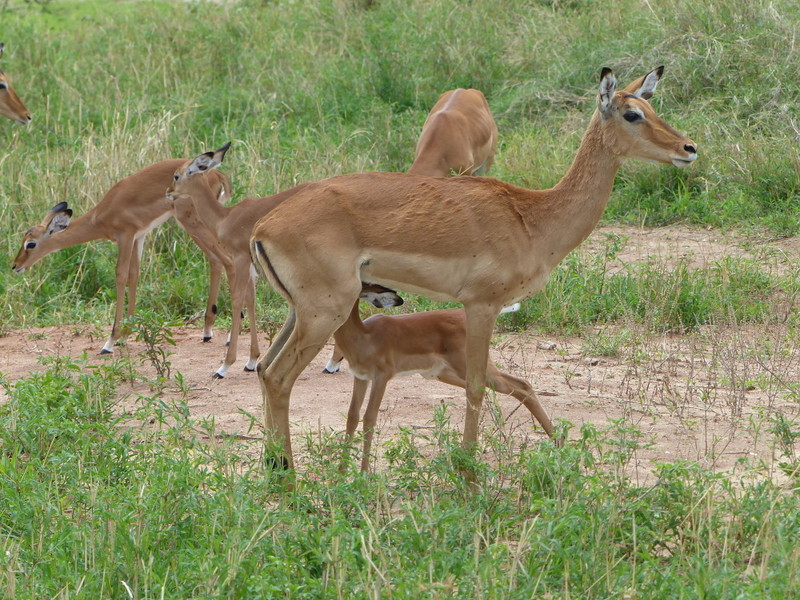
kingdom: Animalia
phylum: Chordata
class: Mammalia
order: Artiodactyla
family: Bovidae
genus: Aepyceros
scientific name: Aepyceros melampus
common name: Impala
